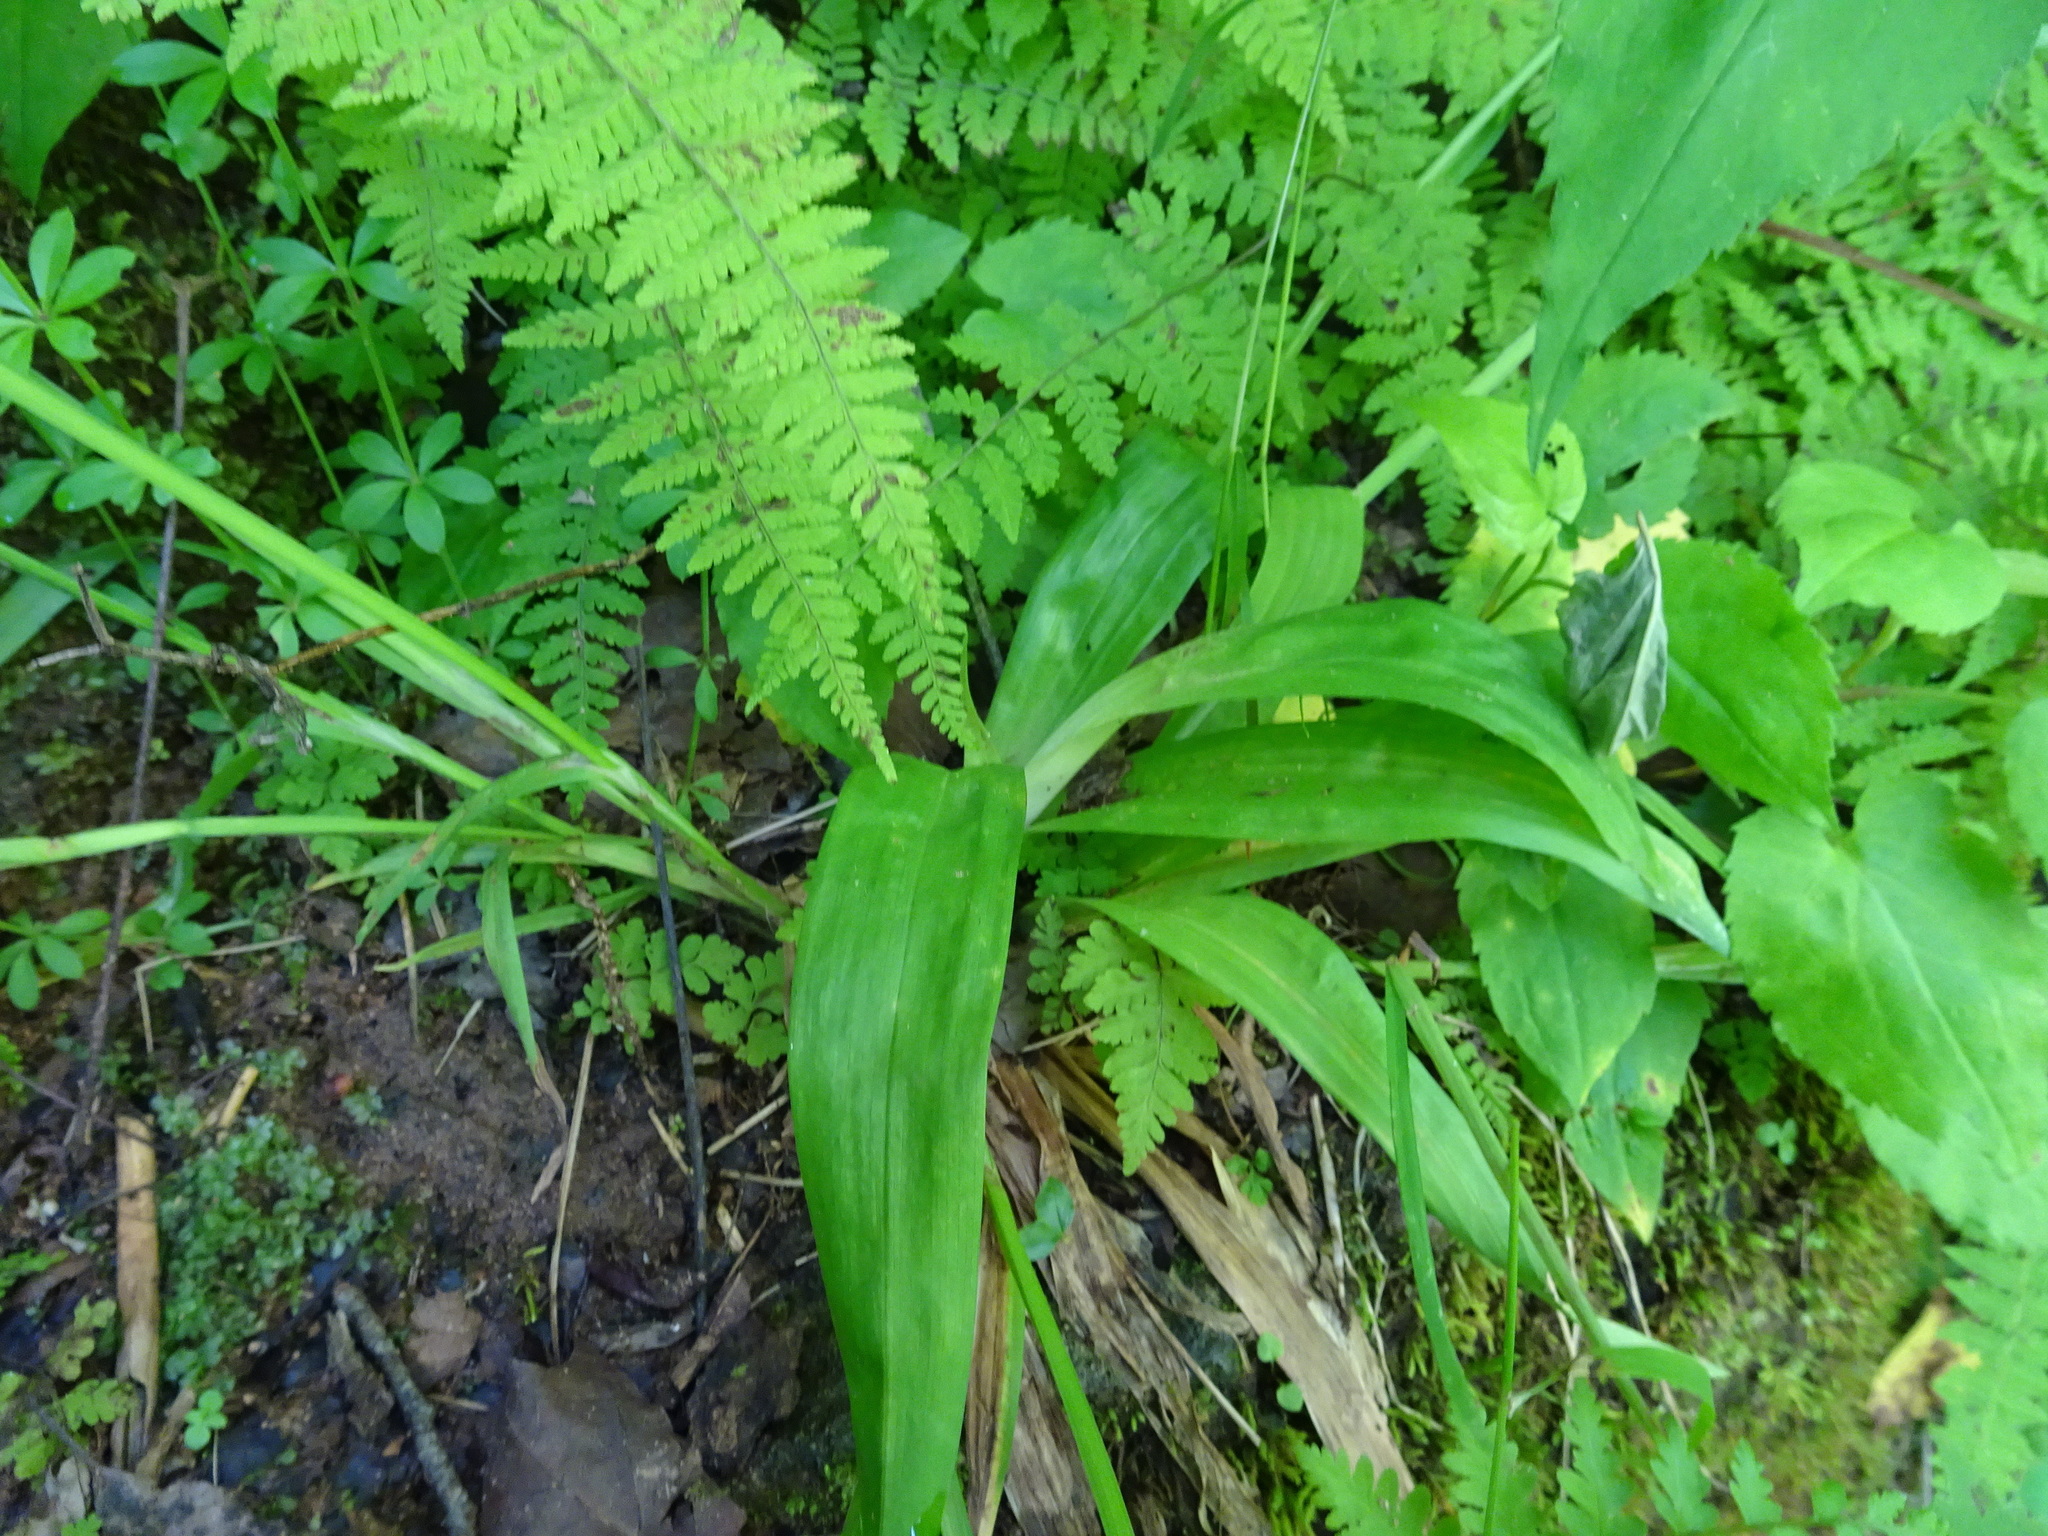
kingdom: Plantae
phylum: Tracheophyta
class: Liliopsida
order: Poales
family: Cyperaceae
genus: Carex
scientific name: Carex albursina
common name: Blunt-scale wood sedge
